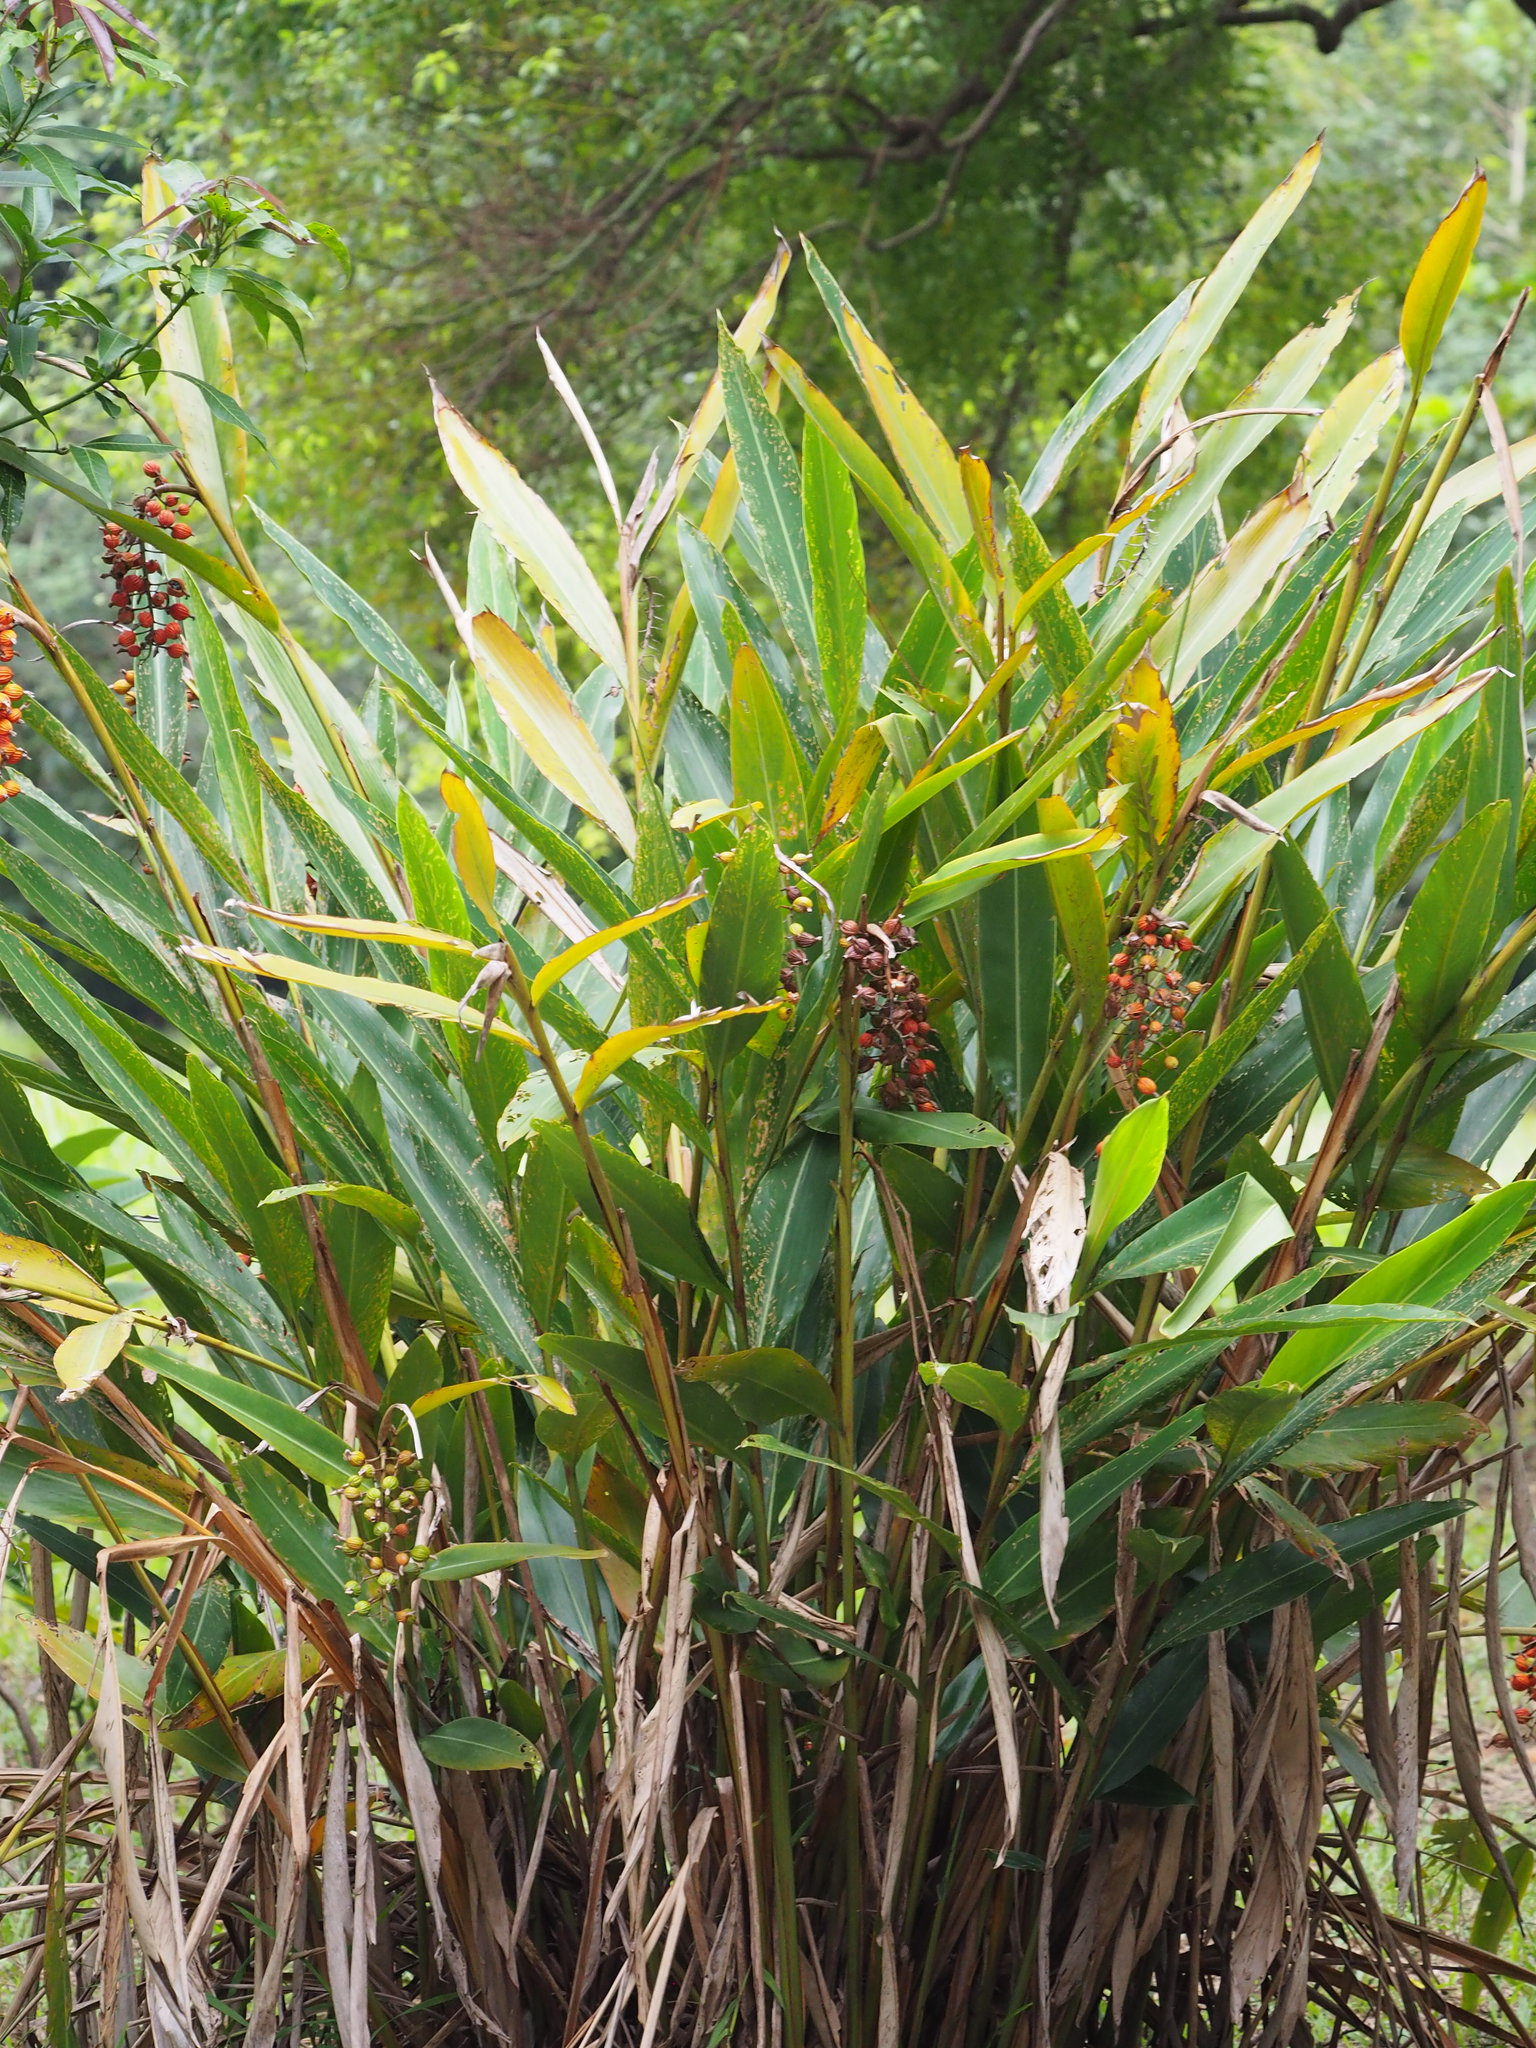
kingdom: Plantae
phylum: Tracheophyta
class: Liliopsida
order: Zingiberales
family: Zingiberaceae
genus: Alpinia
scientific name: Alpinia zerumbet
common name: Shellplant
